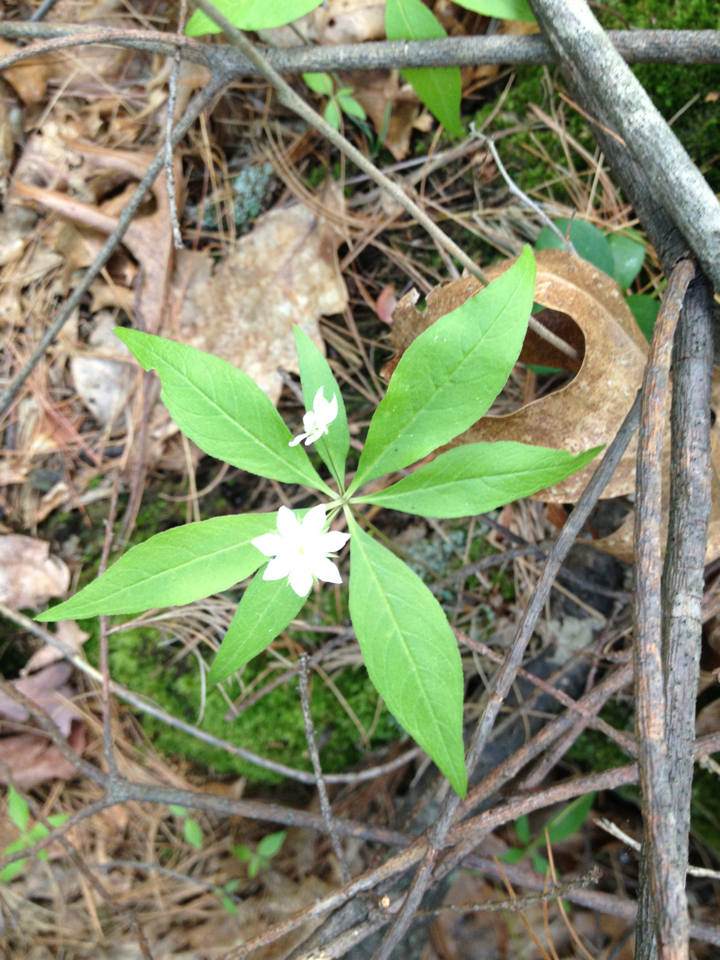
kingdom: Plantae
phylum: Tracheophyta
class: Magnoliopsida
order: Ericales
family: Primulaceae
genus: Lysimachia
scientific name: Lysimachia borealis
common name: American starflower
